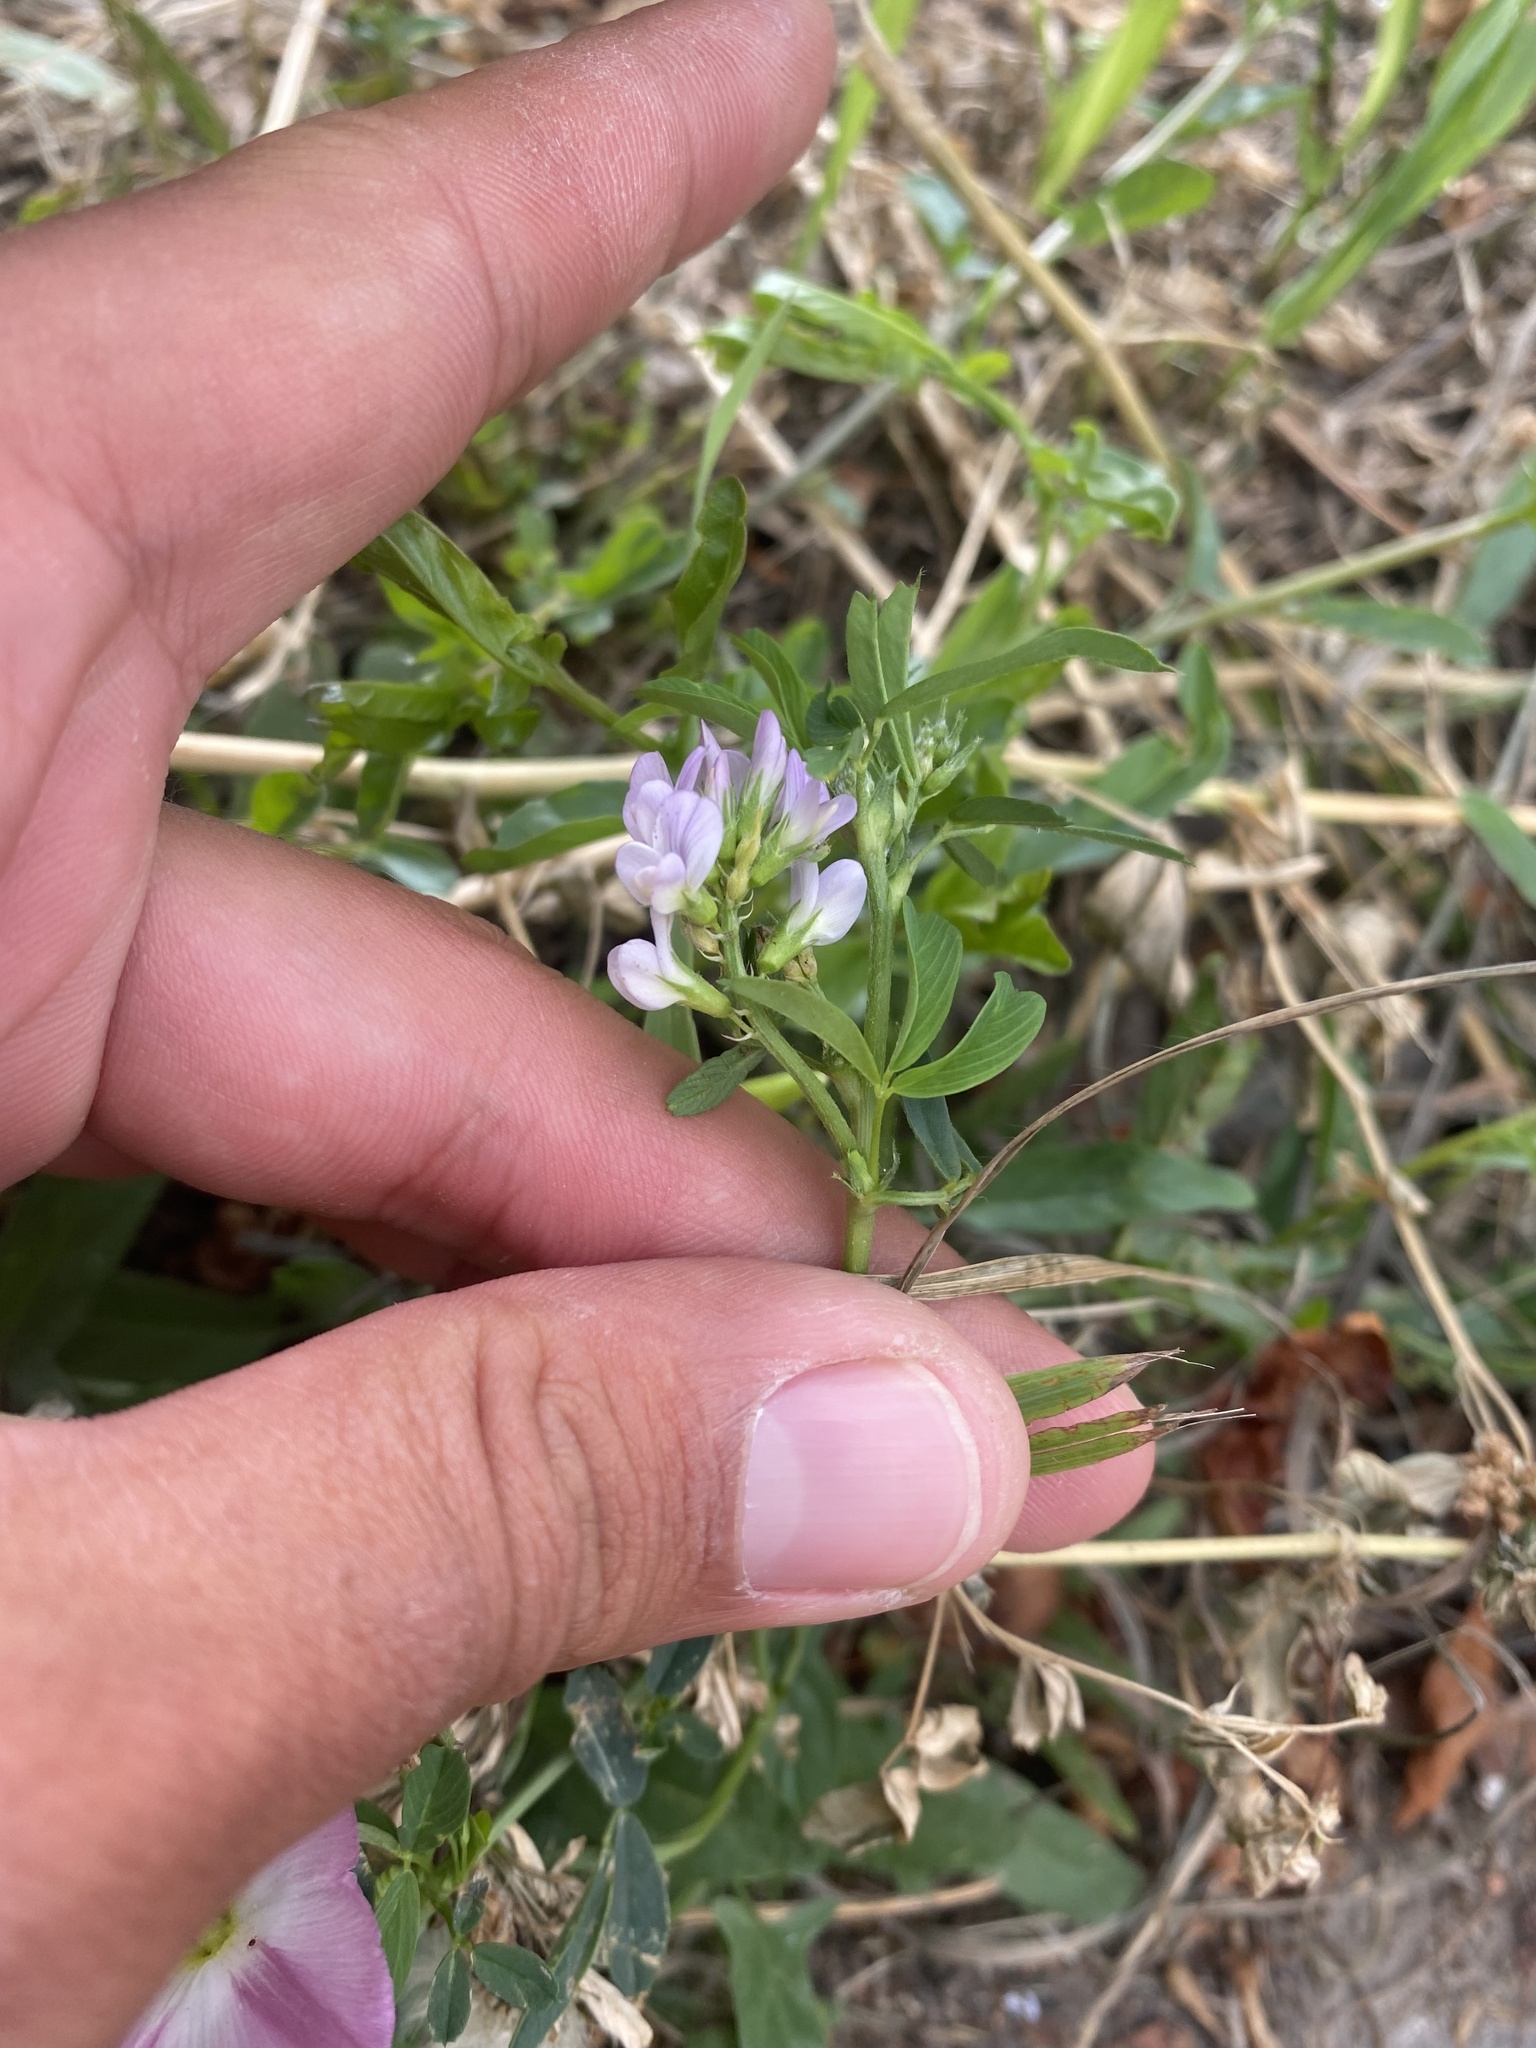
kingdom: Plantae
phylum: Tracheophyta
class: Magnoliopsida
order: Fabales
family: Fabaceae
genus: Medicago
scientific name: Medicago
